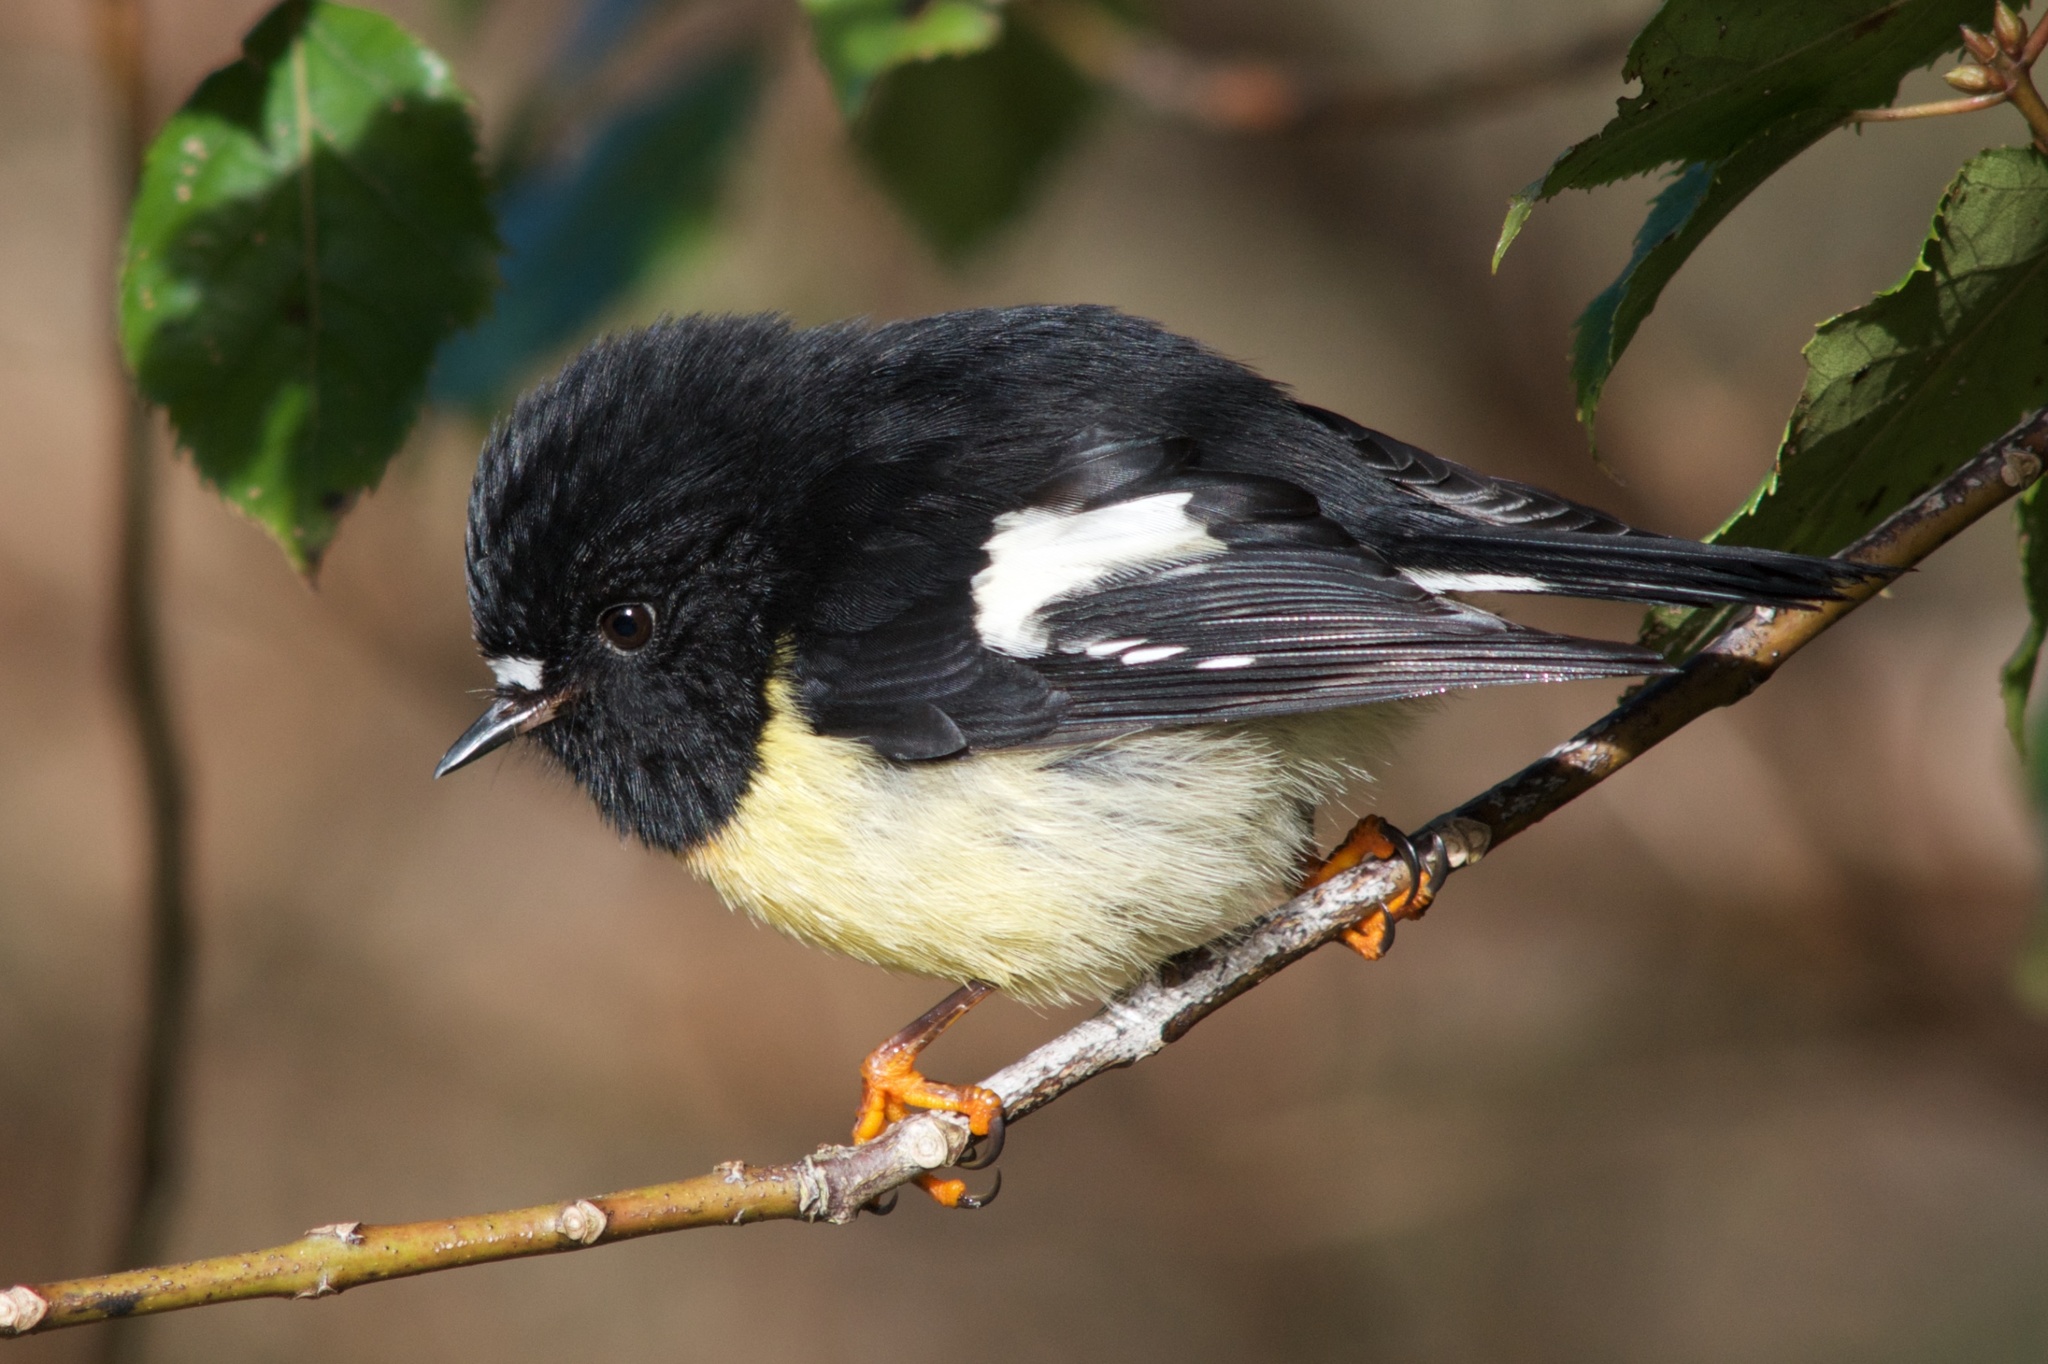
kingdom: Animalia
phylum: Chordata
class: Aves
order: Passeriformes
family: Petroicidae
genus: Petroica
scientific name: Petroica macrocephala
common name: Tomtit
